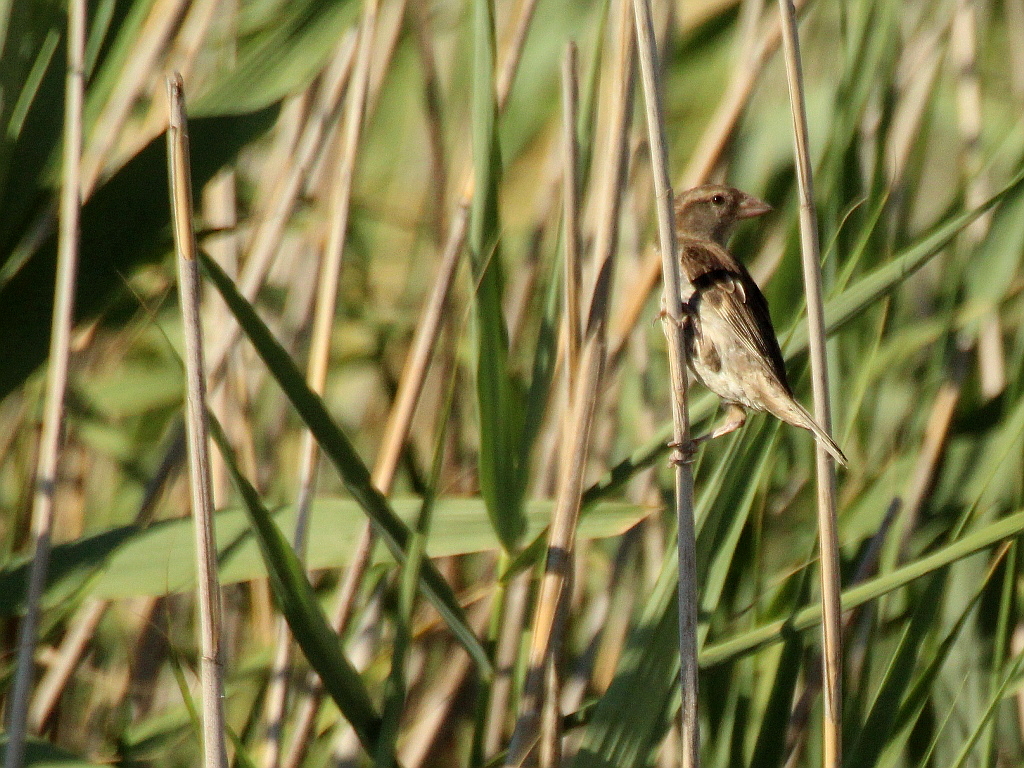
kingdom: Animalia
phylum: Chordata
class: Aves
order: Passeriformes
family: Passeridae
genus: Passer
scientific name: Passer domesticus
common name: House sparrow
